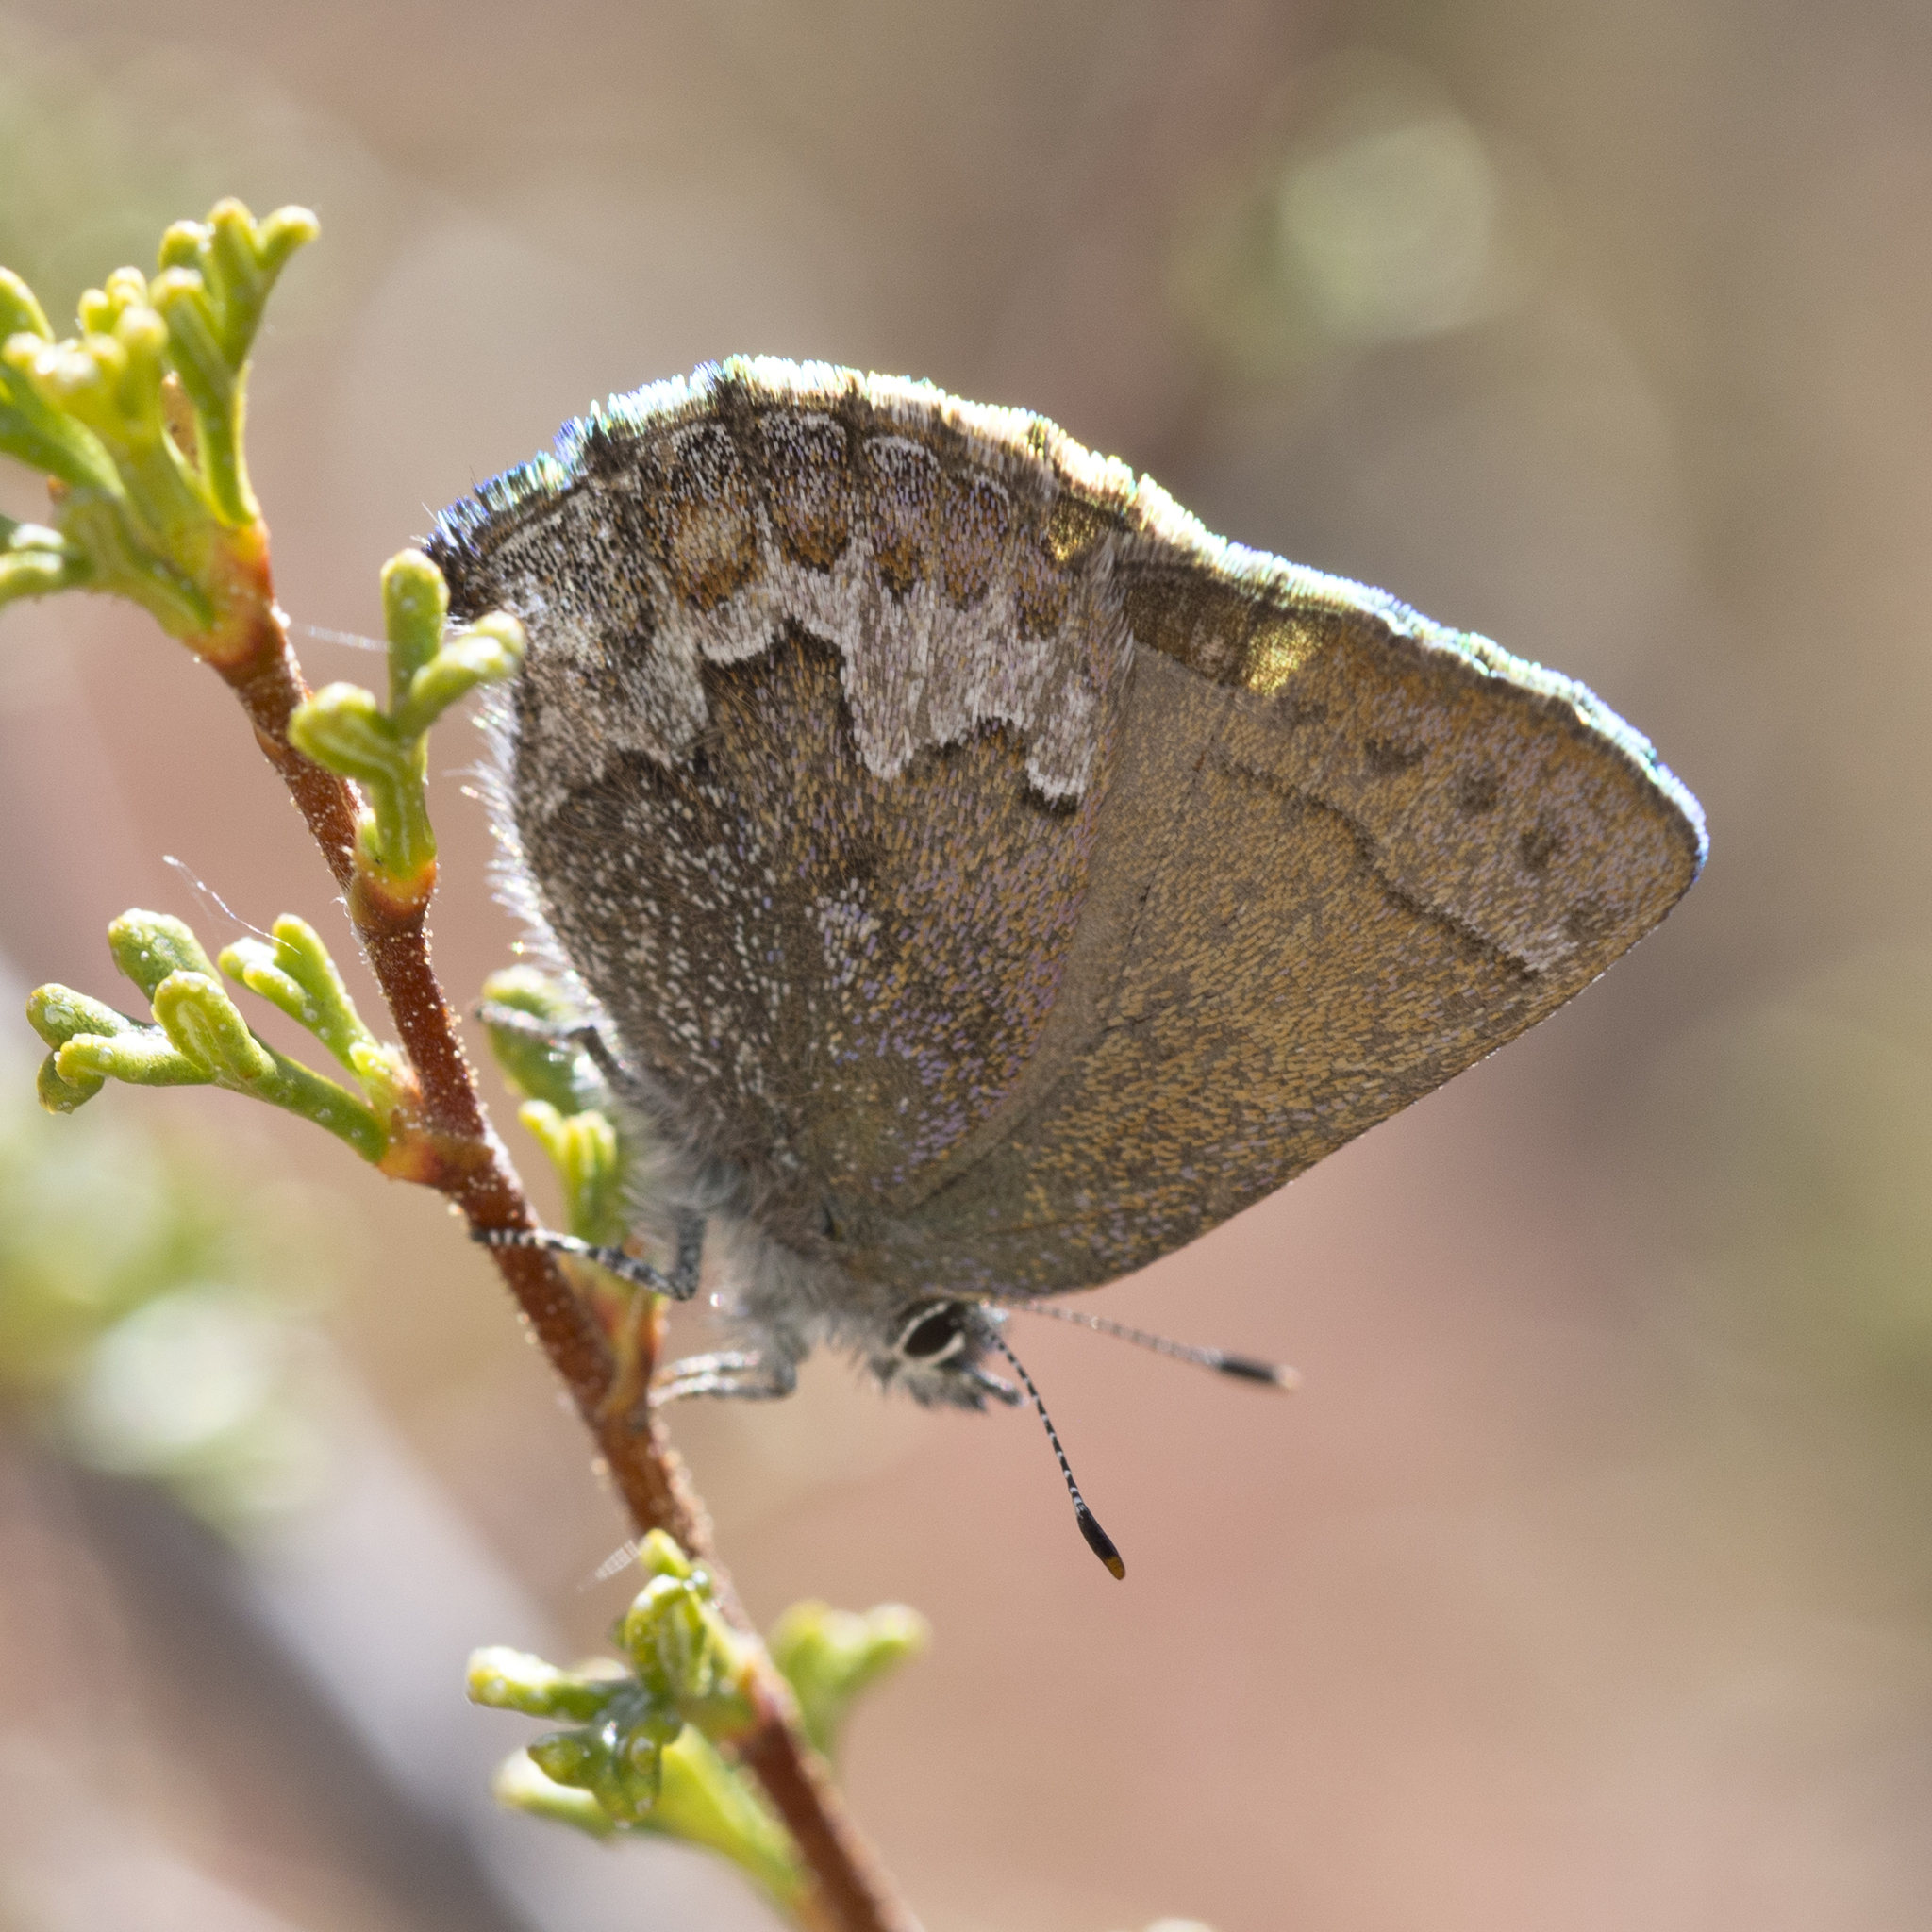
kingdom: Animalia
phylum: Arthropoda
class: Insecta
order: Lepidoptera
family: Lycaenidae
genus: Callophrys
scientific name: Callophrys fotis
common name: Desert elfin
